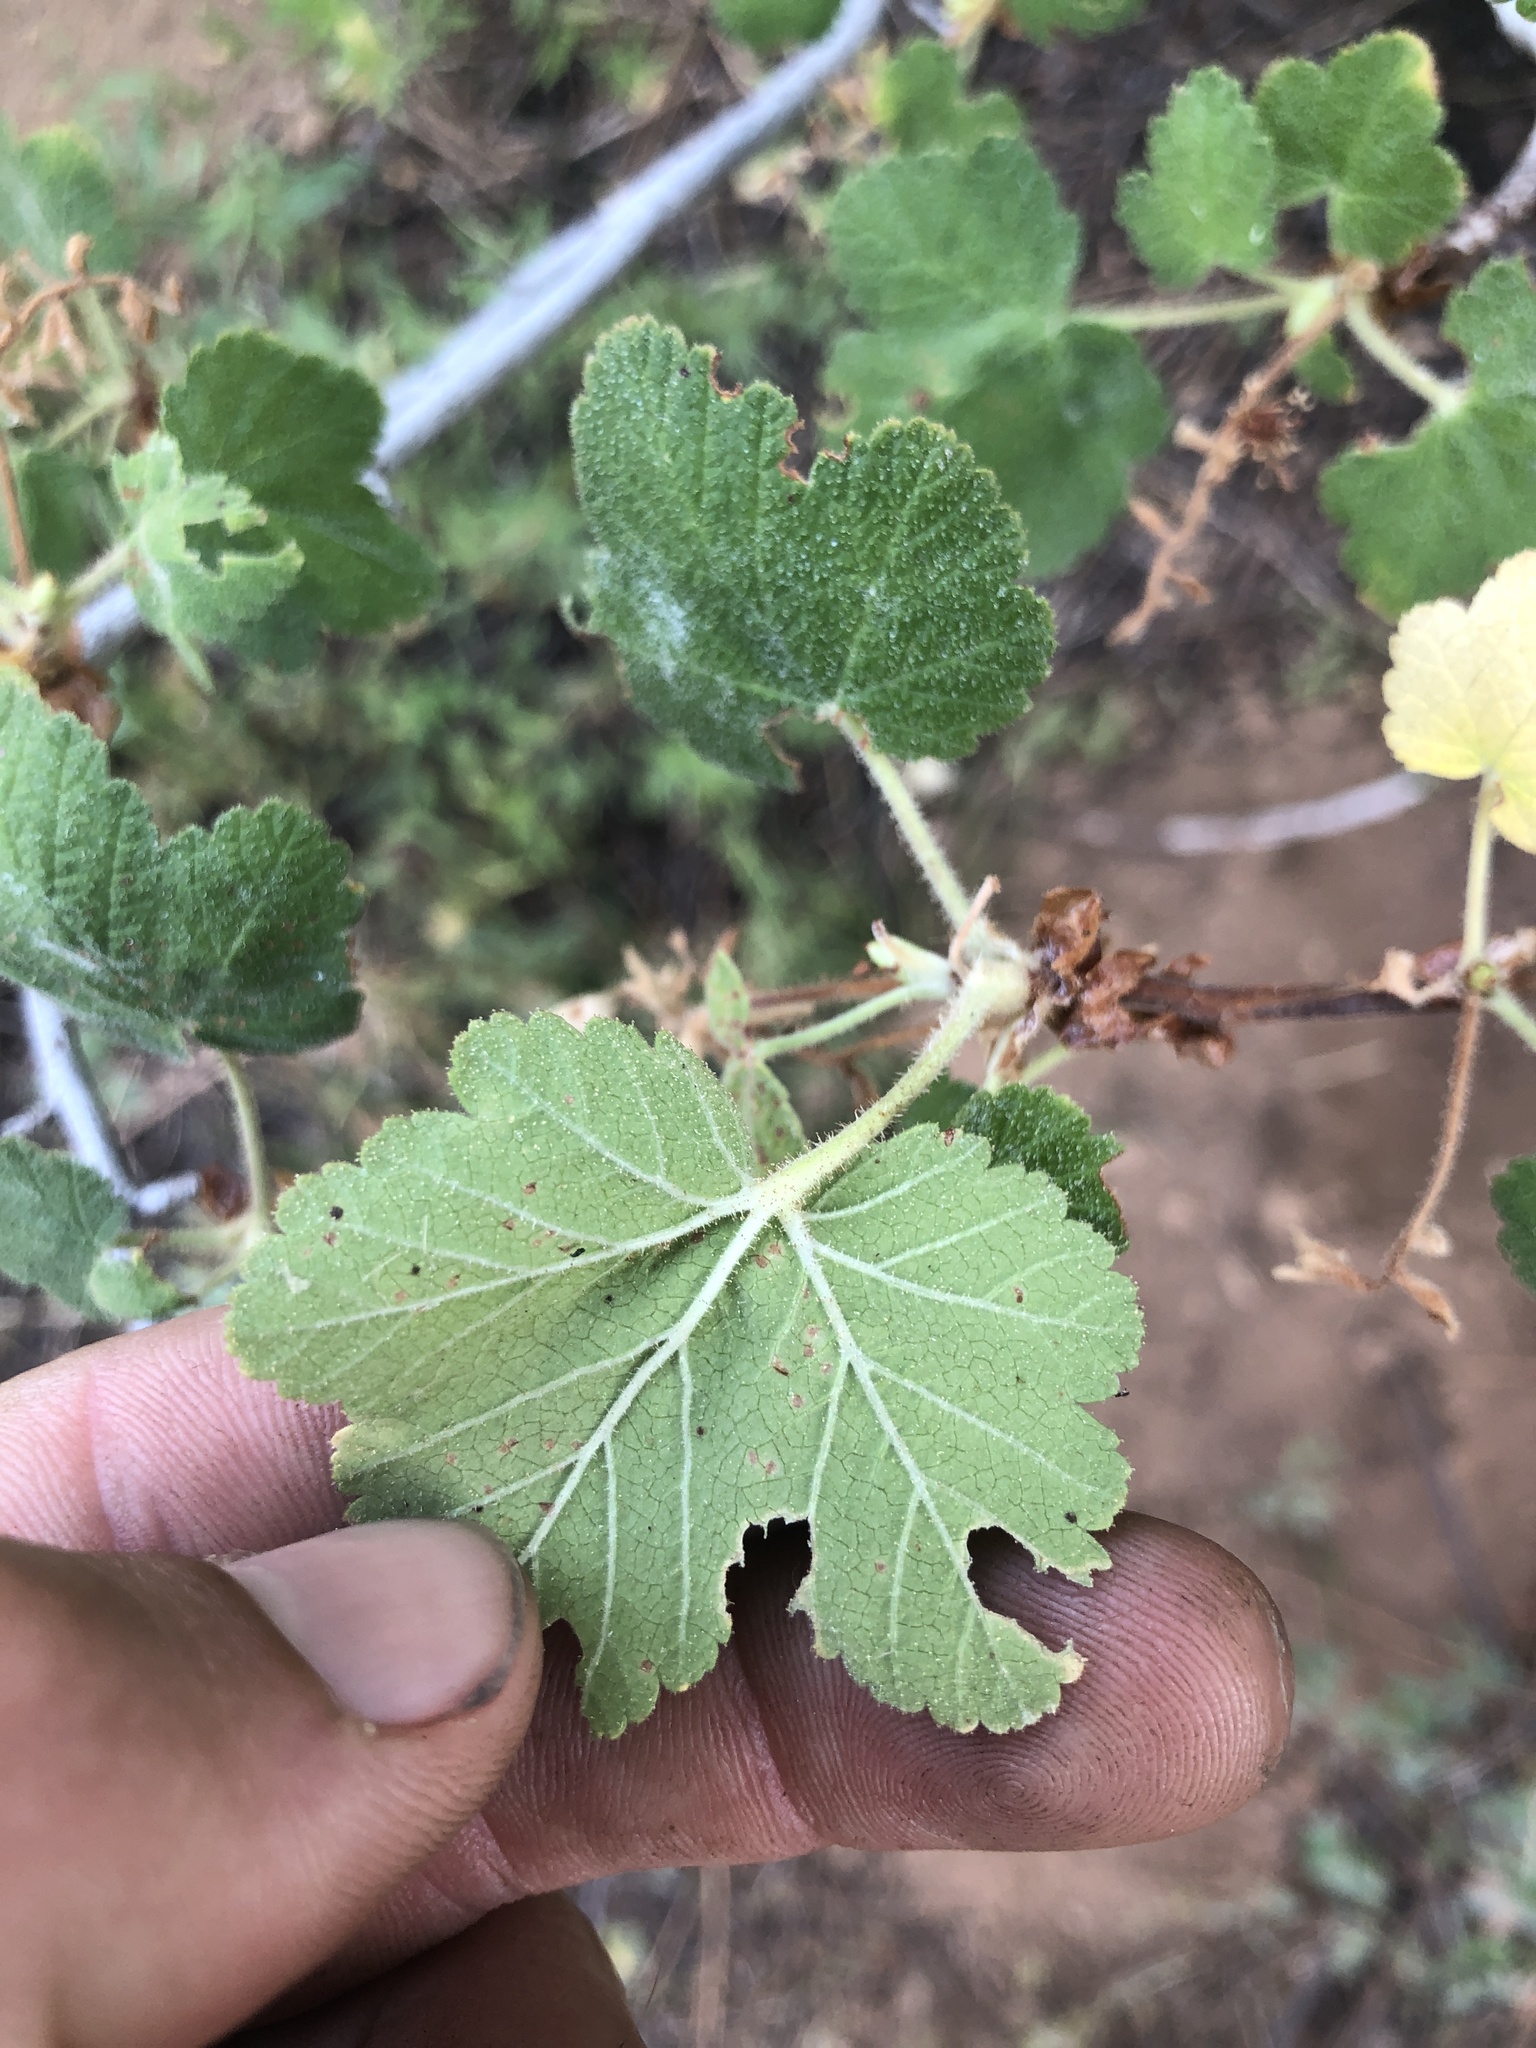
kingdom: Plantae
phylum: Tracheophyta
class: Magnoliopsida
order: Saxifragales
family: Grossulariaceae
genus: Ribes
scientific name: Ribes viscosissimum
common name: Sticky currant
